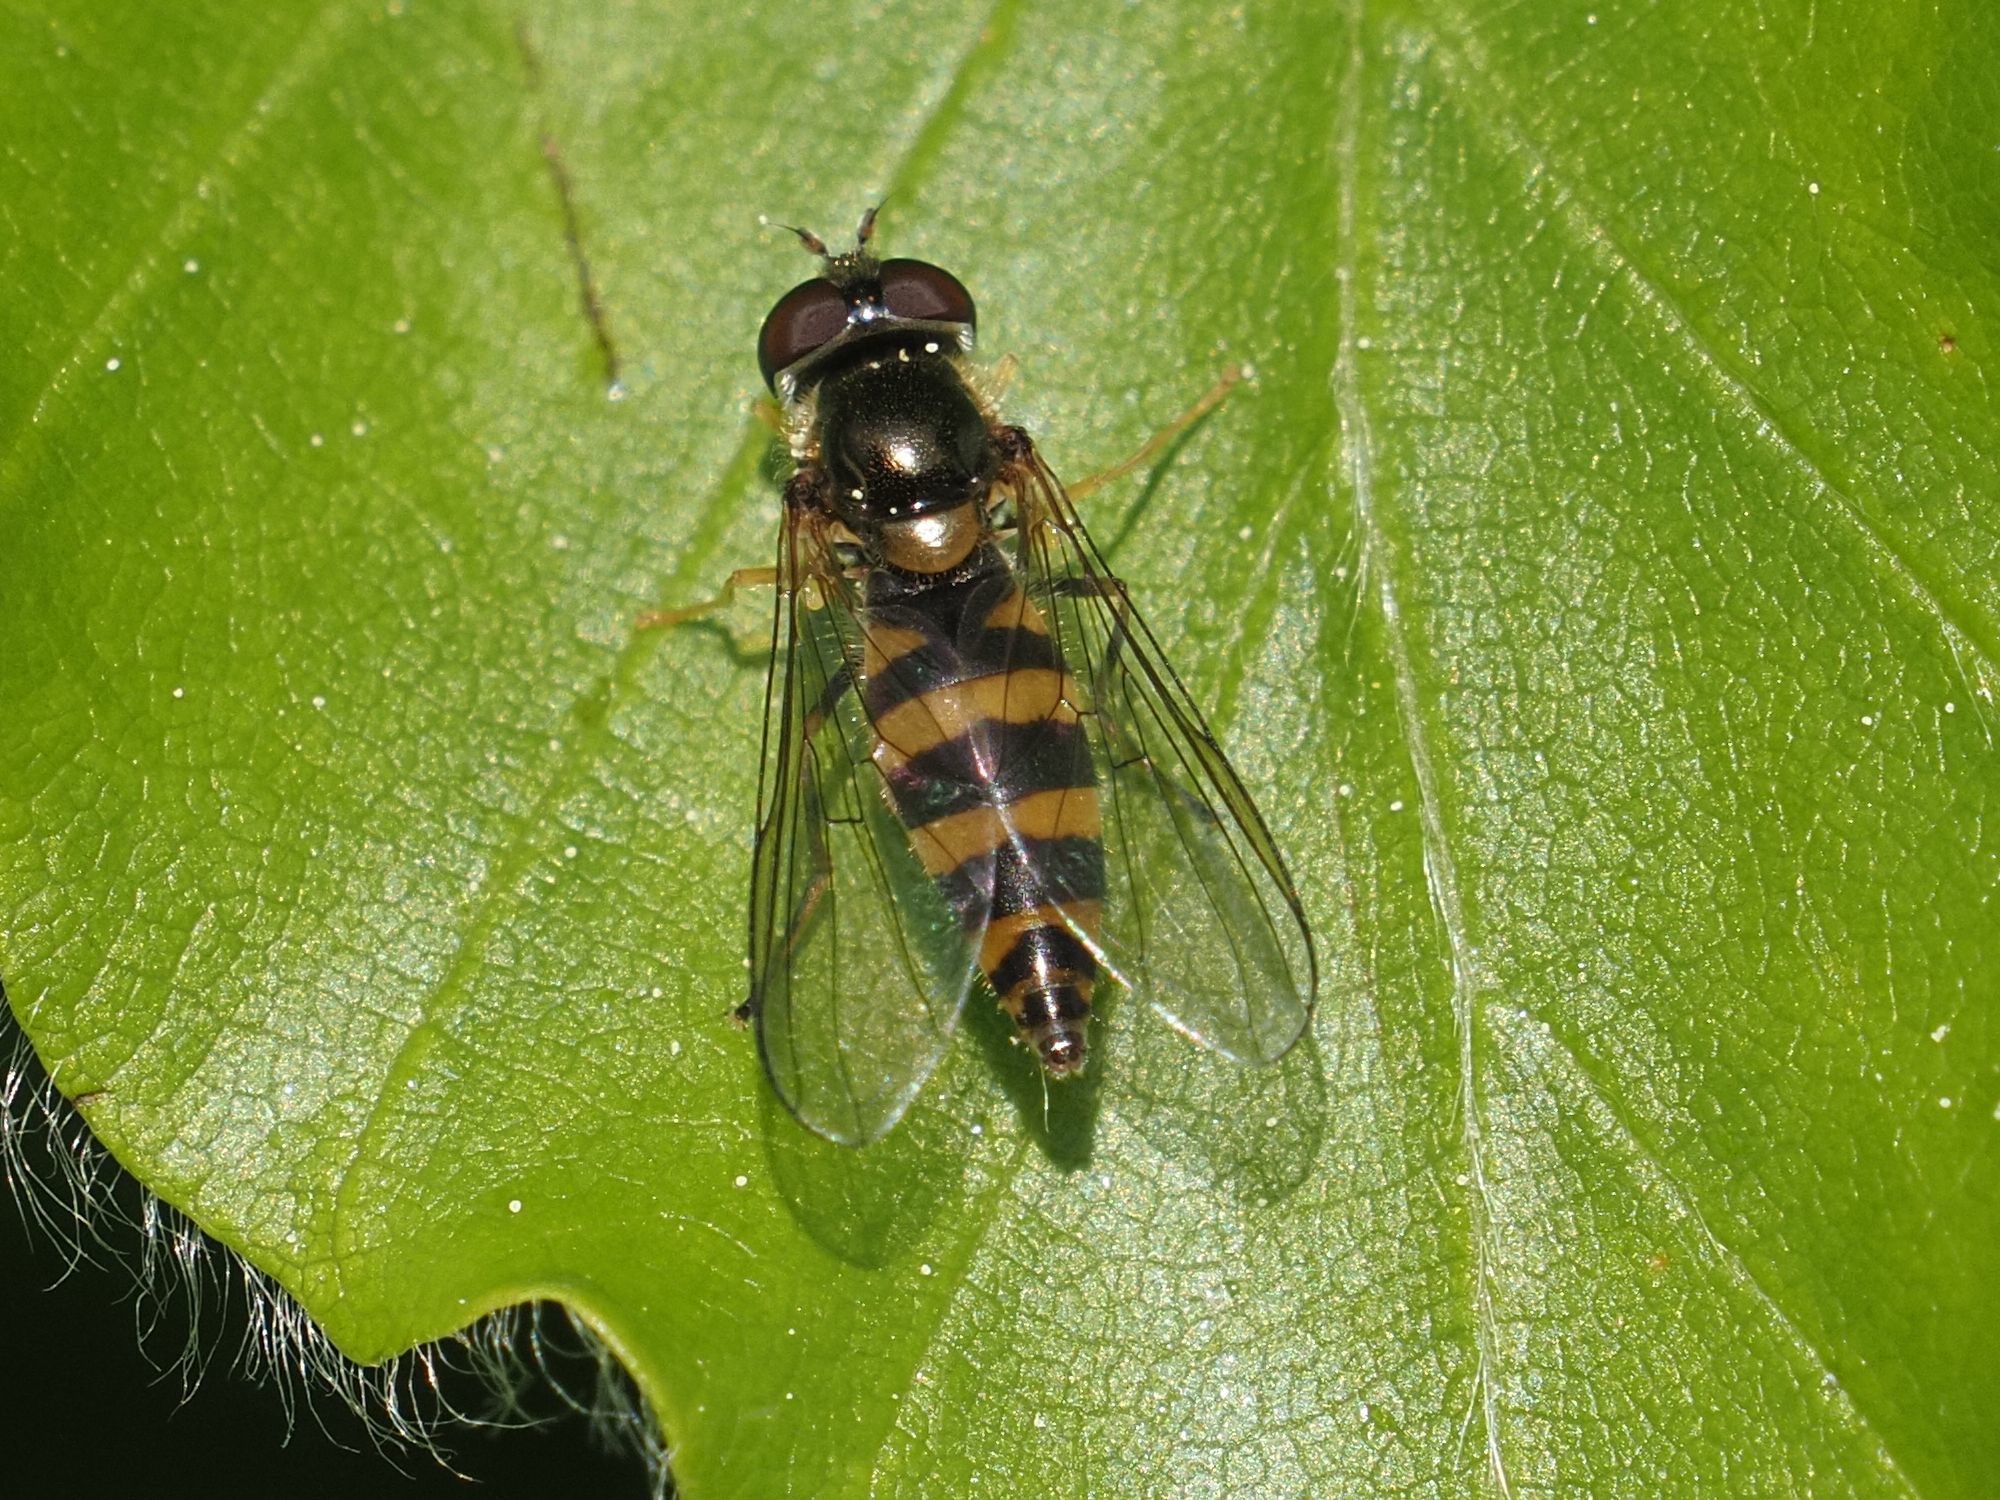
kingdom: Animalia
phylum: Arthropoda
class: Insecta
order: Diptera
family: Syrphidae
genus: Fagisyrphus
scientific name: Fagisyrphus cincta
